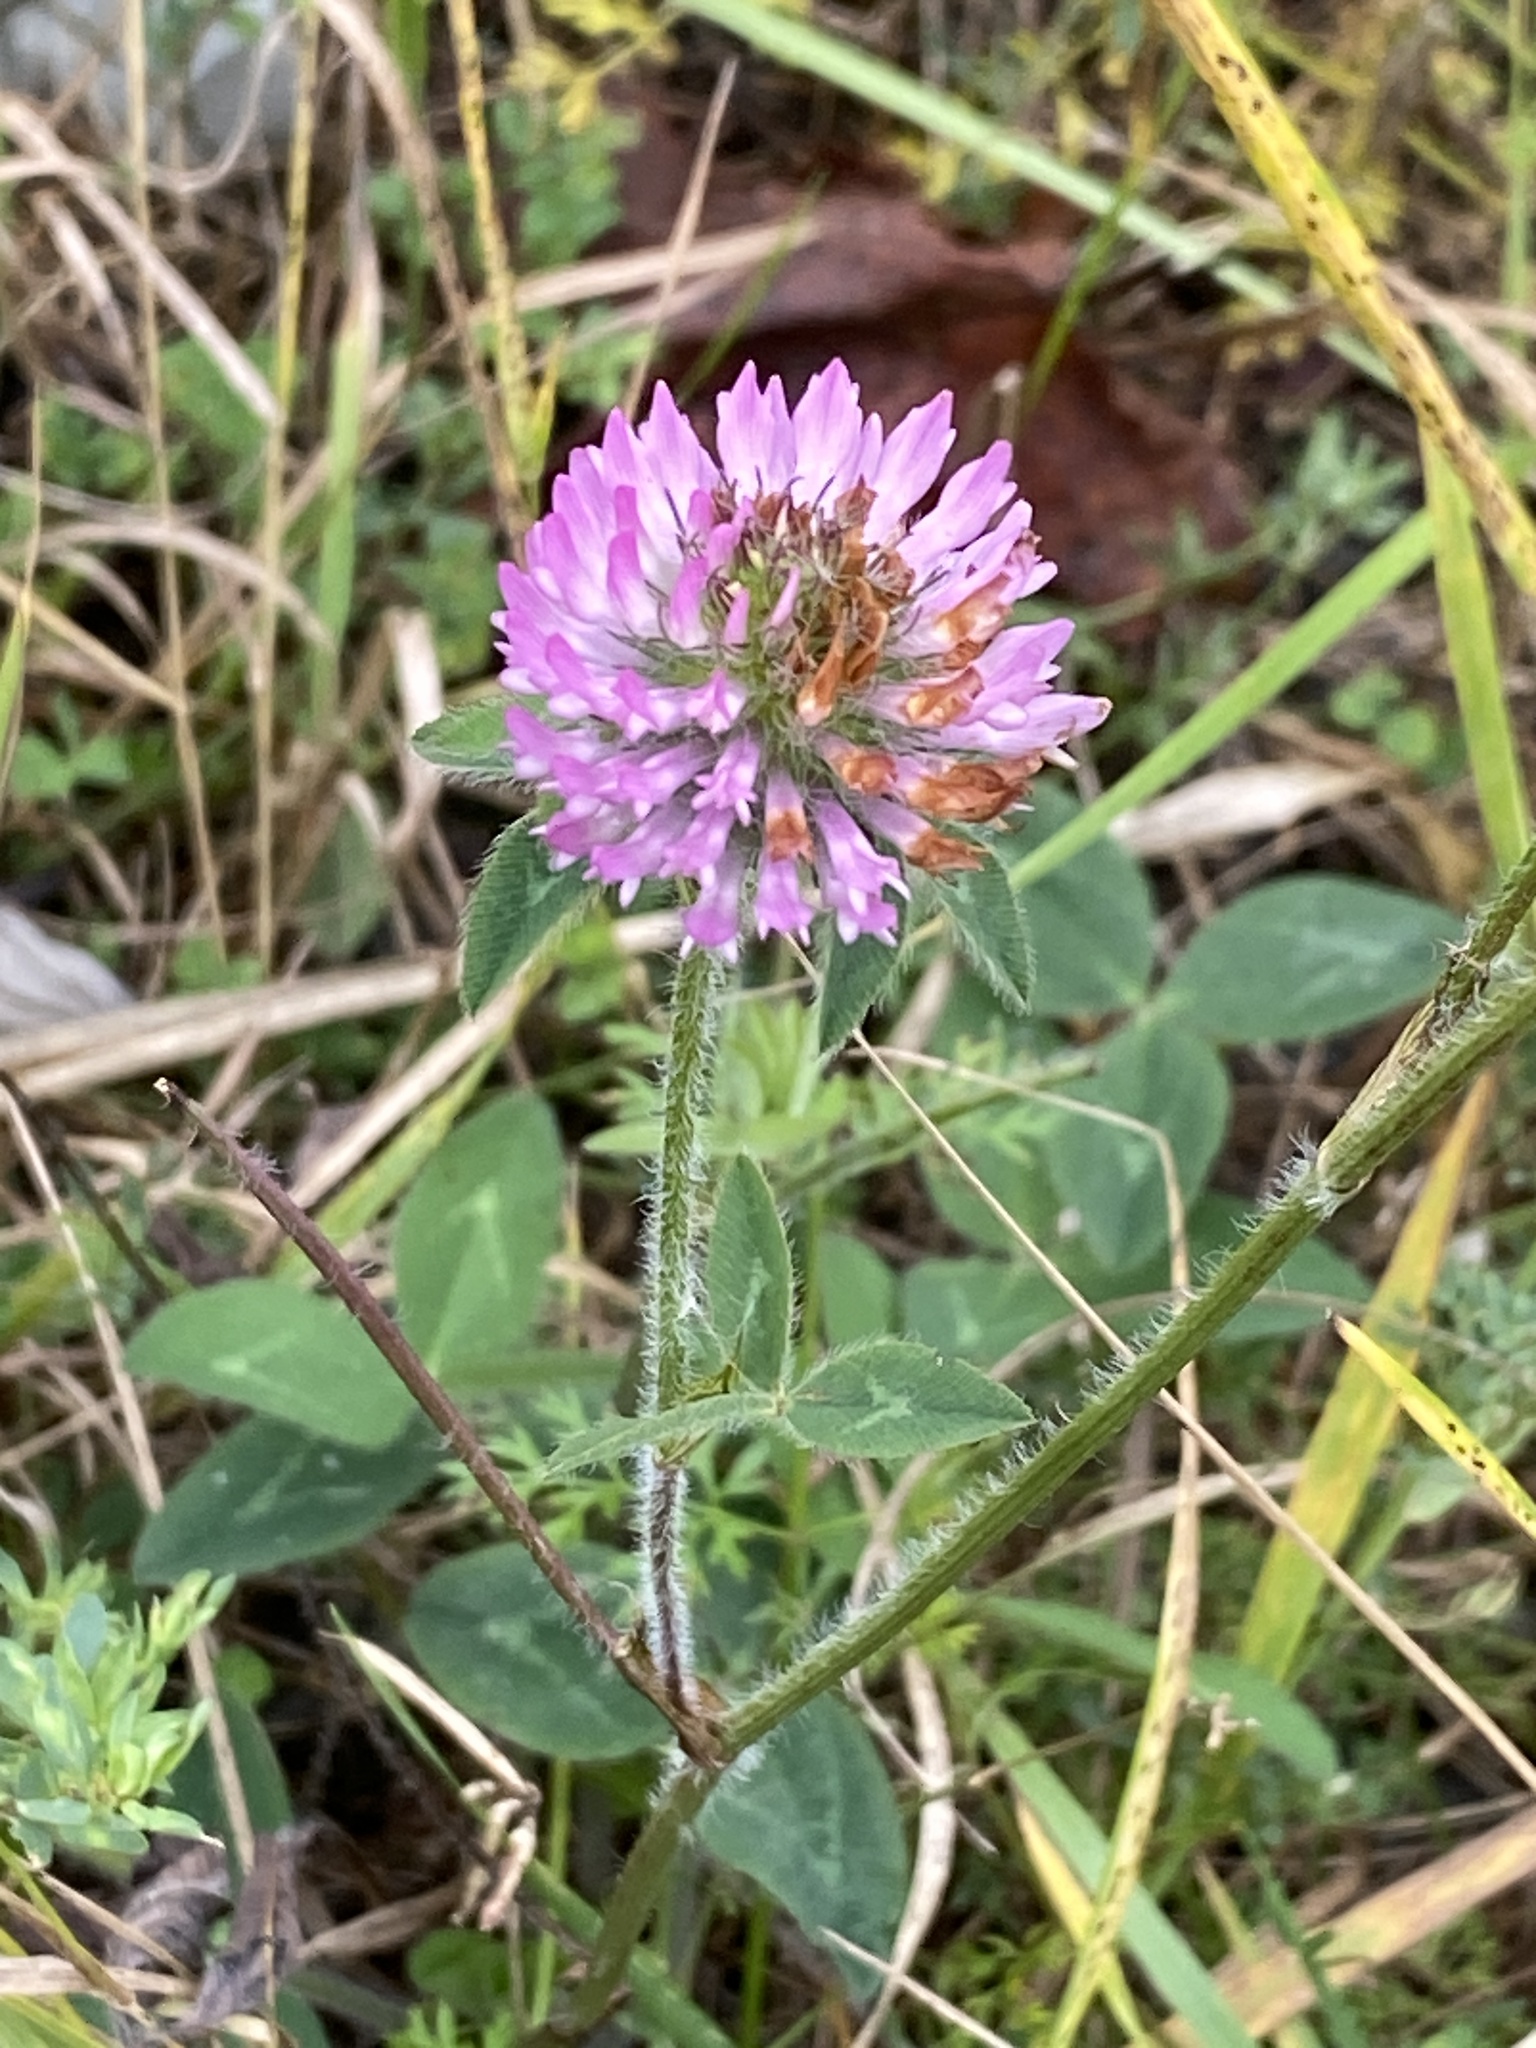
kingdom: Plantae
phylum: Tracheophyta
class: Magnoliopsida
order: Fabales
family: Fabaceae
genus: Trifolium
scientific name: Trifolium pratense
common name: Red clover
